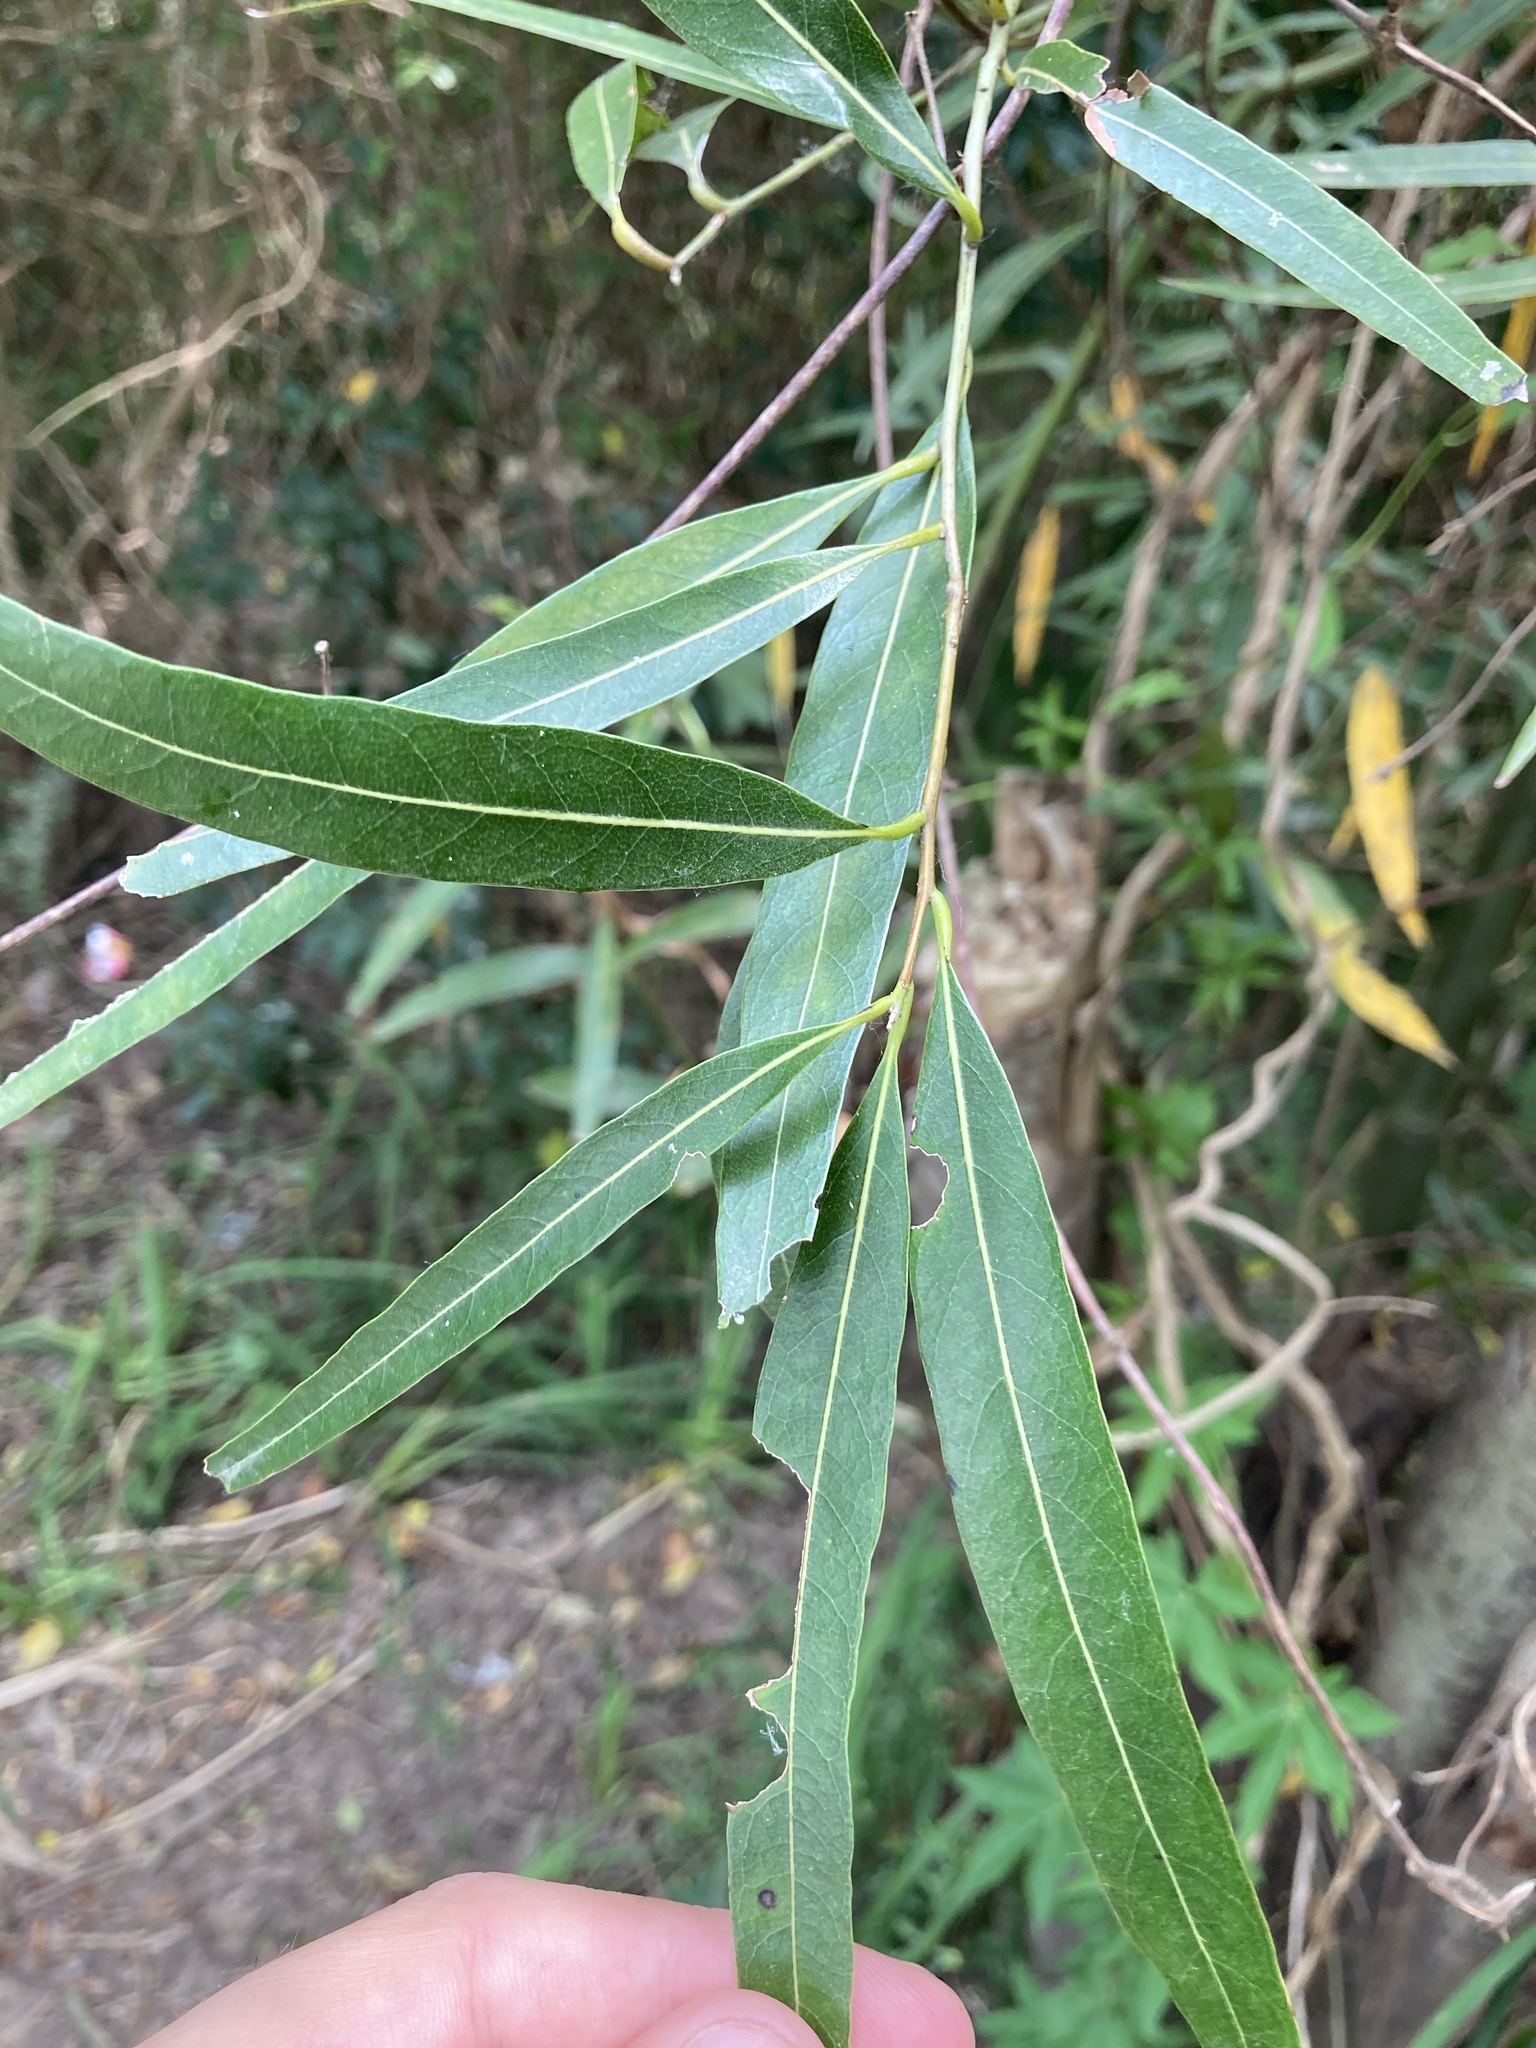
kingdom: Plantae
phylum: Tracheophyta
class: Magnoliopsida
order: Laurales
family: Lauraceae
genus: Nectandra
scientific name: Nectandra angustifolia
